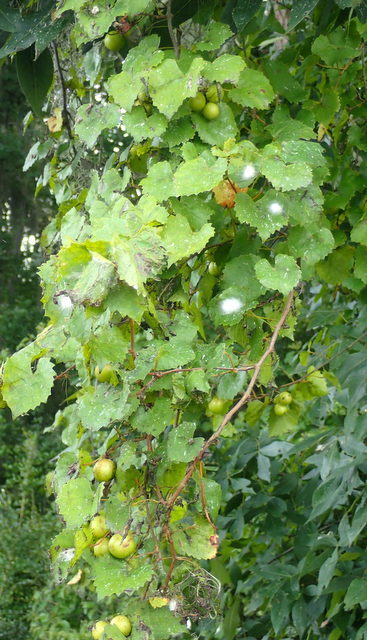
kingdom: Plantae
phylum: Tracheophyta
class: Magnoliopsida
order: Vitales
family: Vitaceae
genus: Vitis
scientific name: Vitis rotundifolia
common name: Muscadine grape
